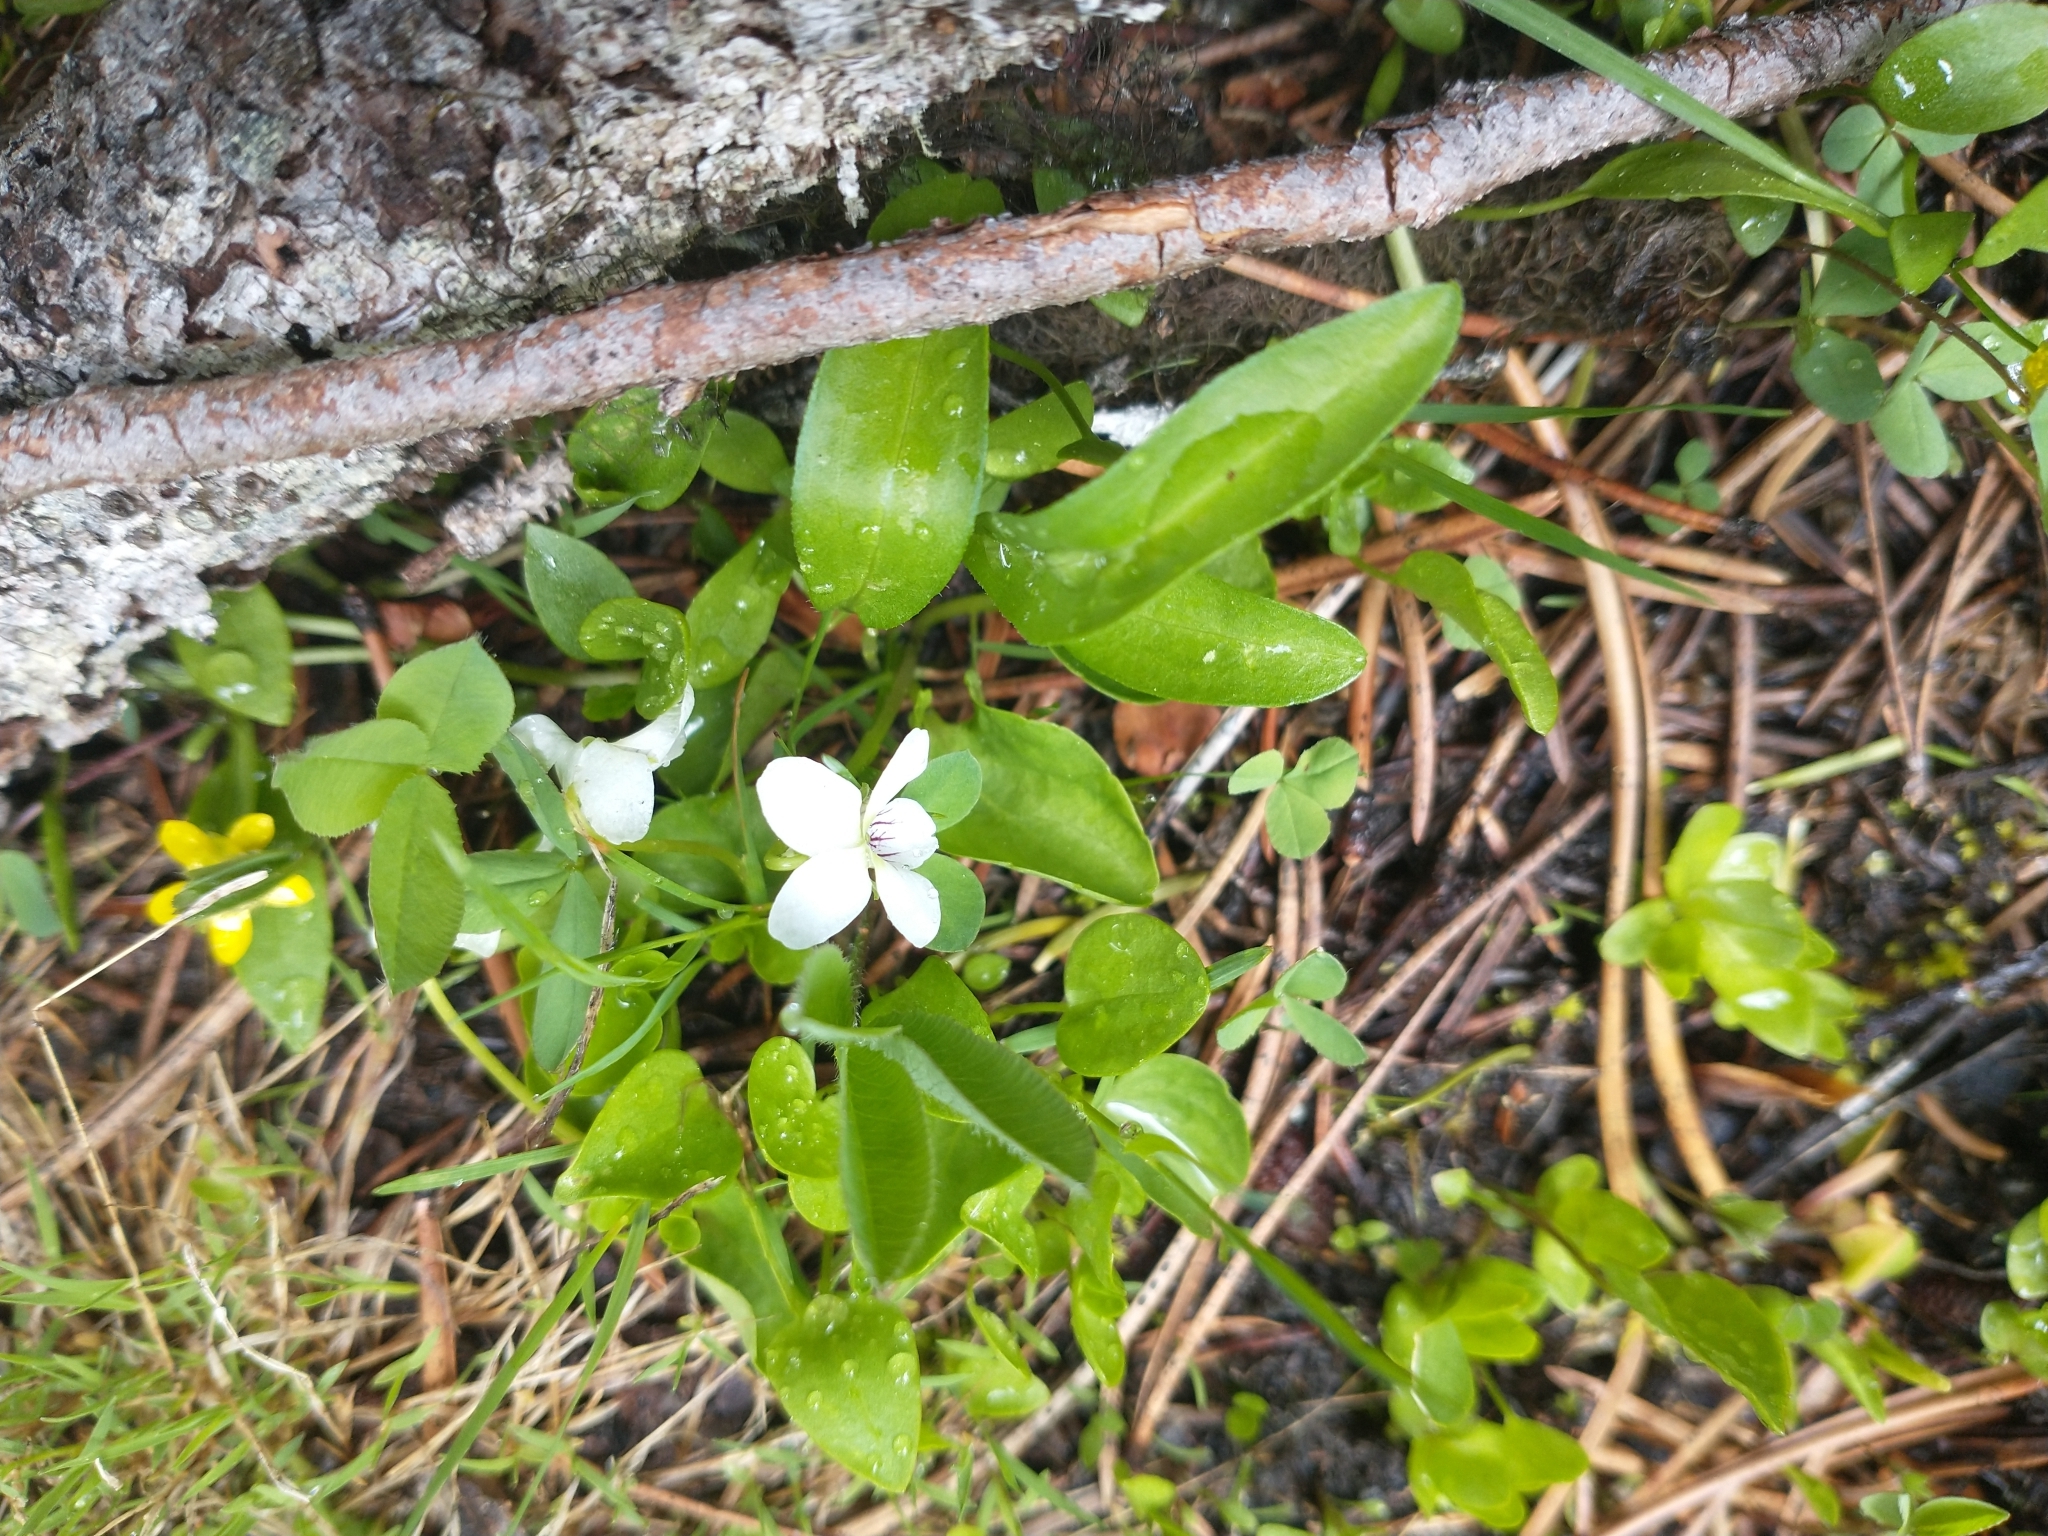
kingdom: Plantae
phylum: Tracheophyta
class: Magnoliopsida
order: Malpighiales
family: Violaceae
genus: Viola
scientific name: Viola macloskeyi
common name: Macloskey's violet
